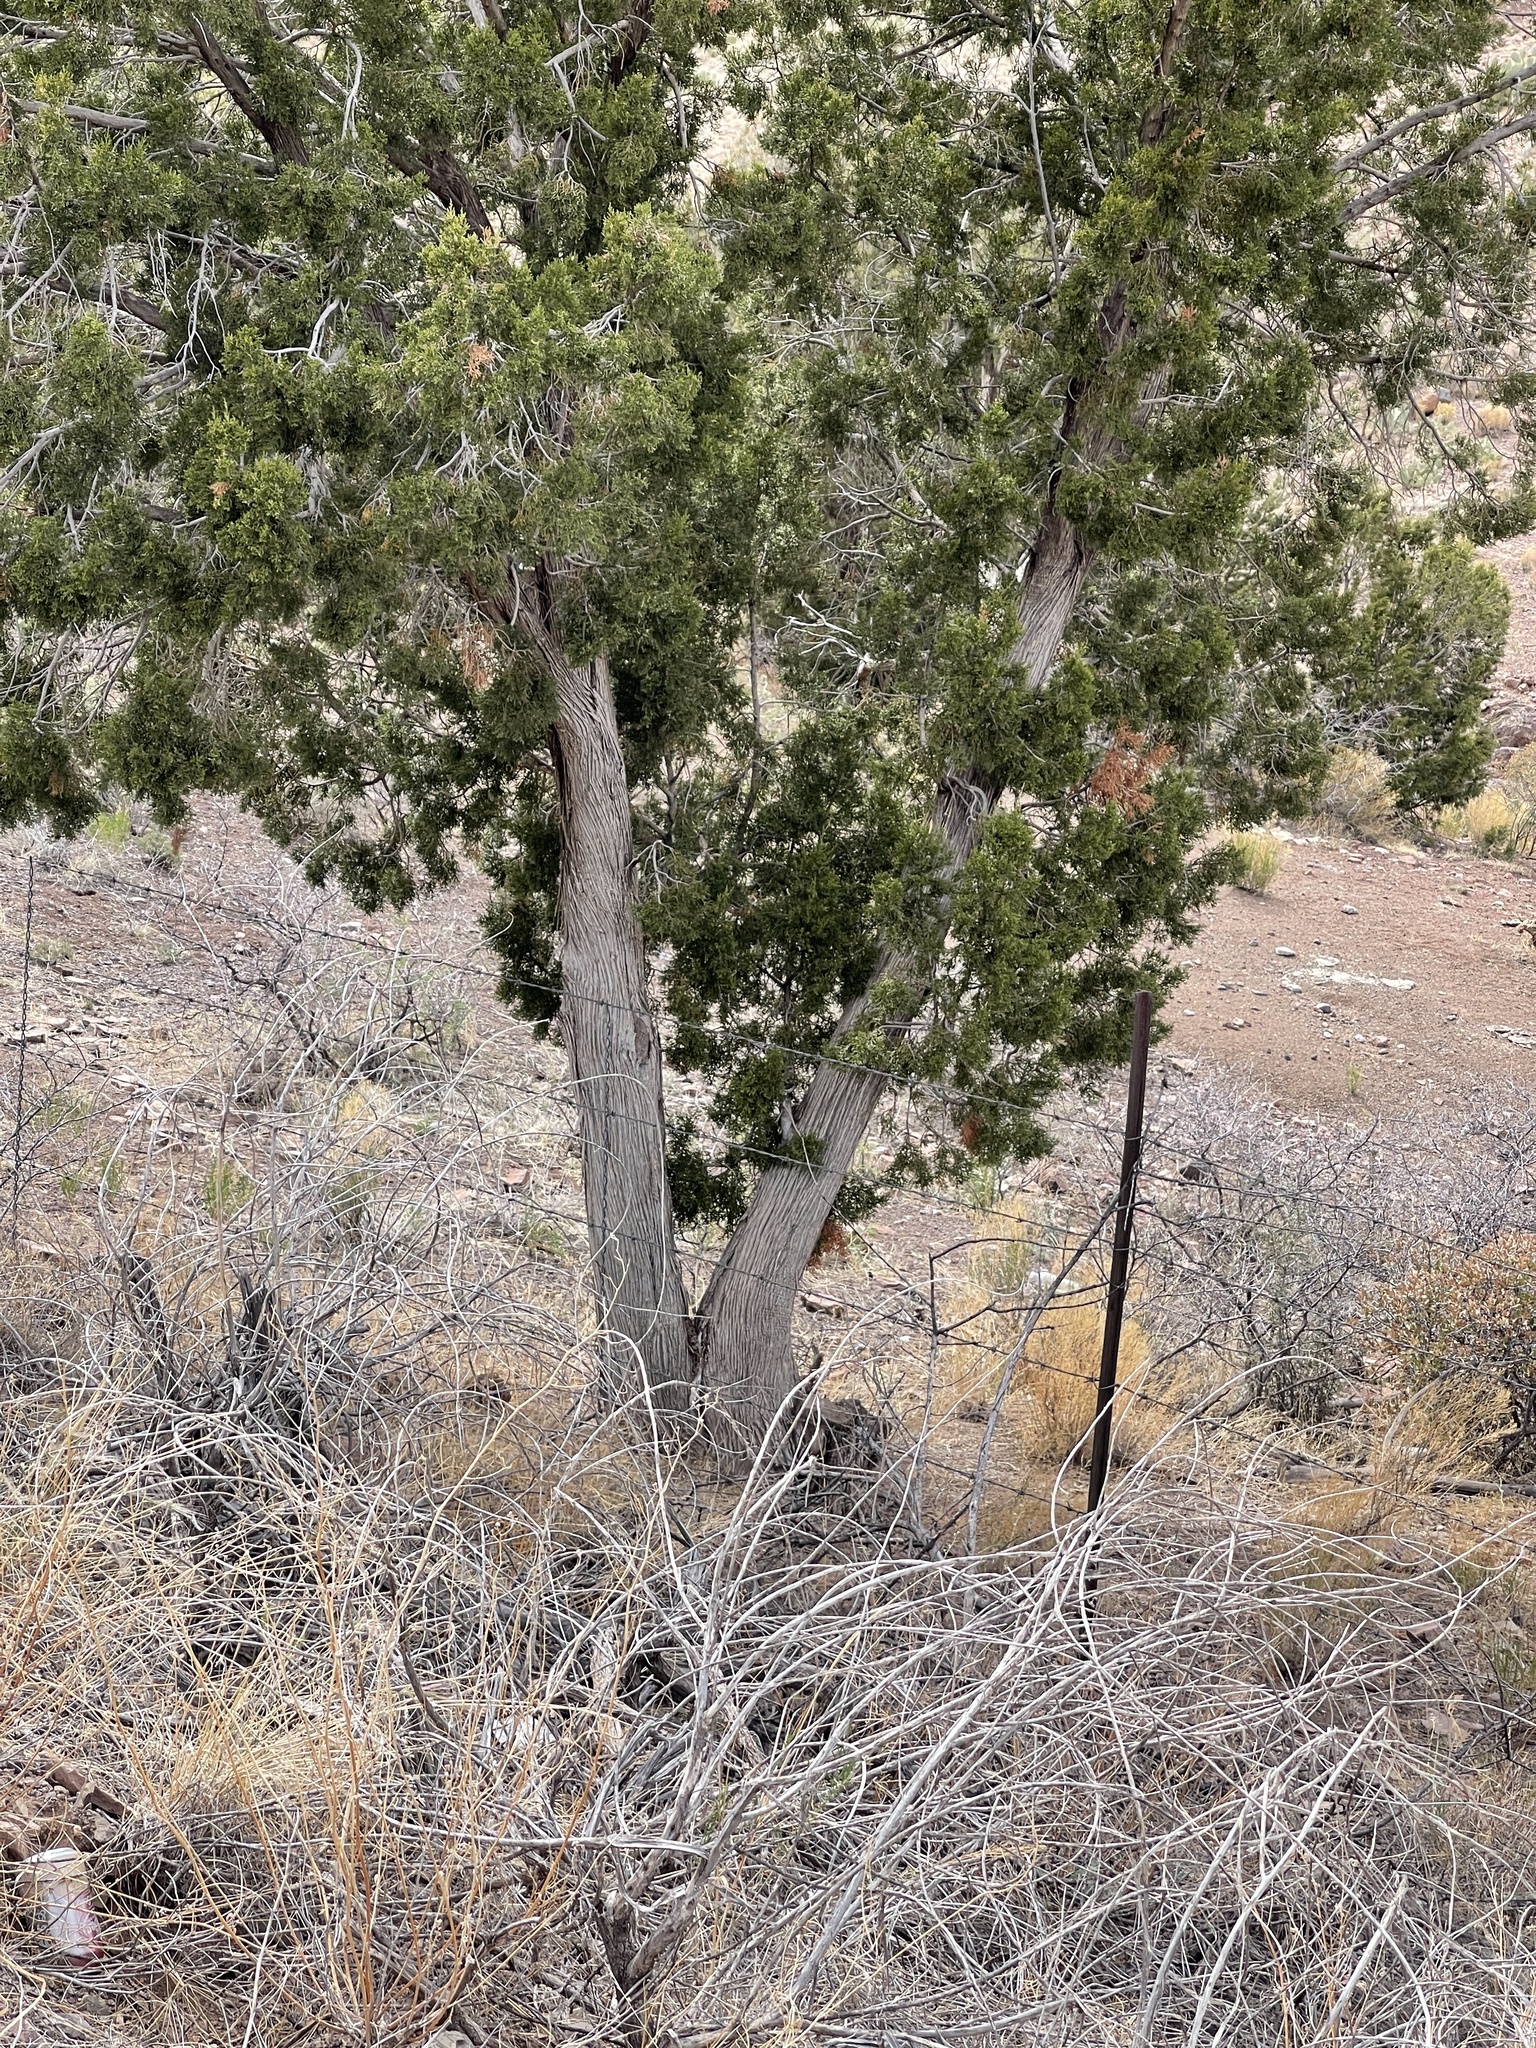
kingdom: Plantae
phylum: Tracheophyta
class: Pinopsida
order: Pinales
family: Cupressaceae
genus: Juniperus
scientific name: Juniperus monosperma
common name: One-seed juniper
